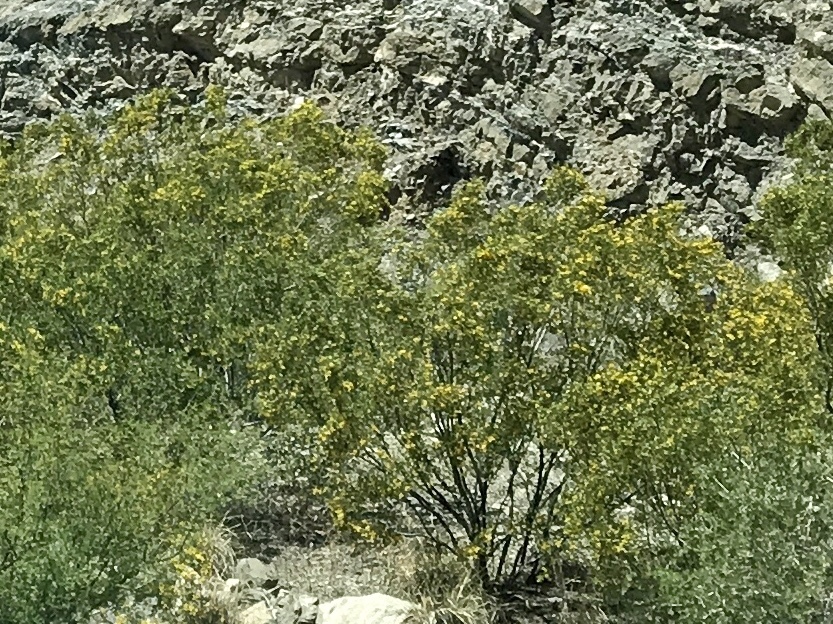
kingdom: Plantae
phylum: Tracheophyta
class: Magnoliopsida
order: Zygophyllales
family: Zygophyllaceae
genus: Larrea
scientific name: Larrea tridentata
